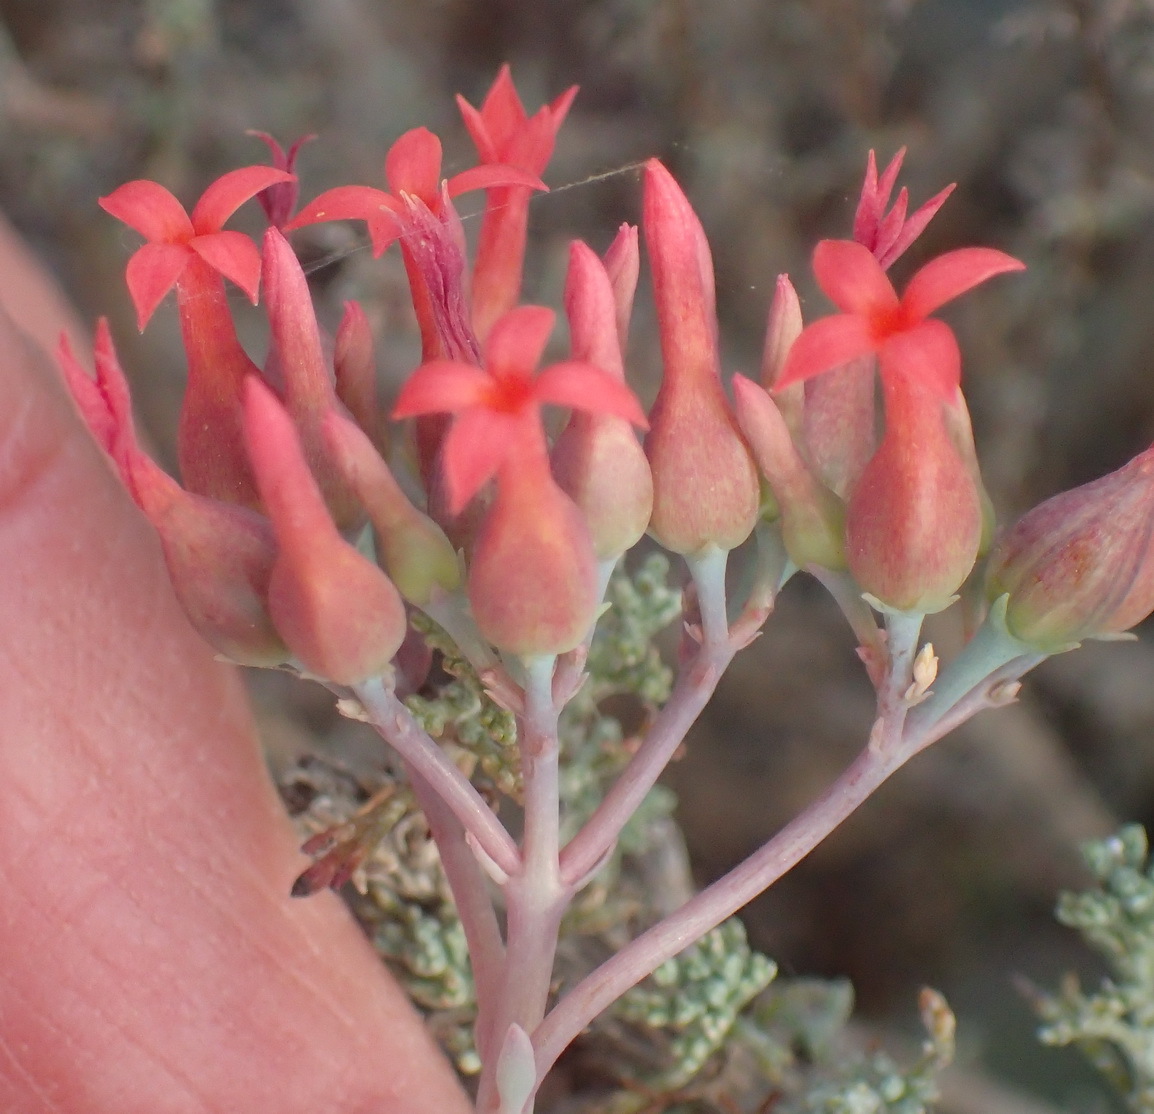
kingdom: Plantae
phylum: Tracheophyta
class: Magnoliopsida
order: Saxifragales
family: Crassulaceae
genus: Kalanchoe
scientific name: Kalanchoe rotundifolia
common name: Common kalanchoe
